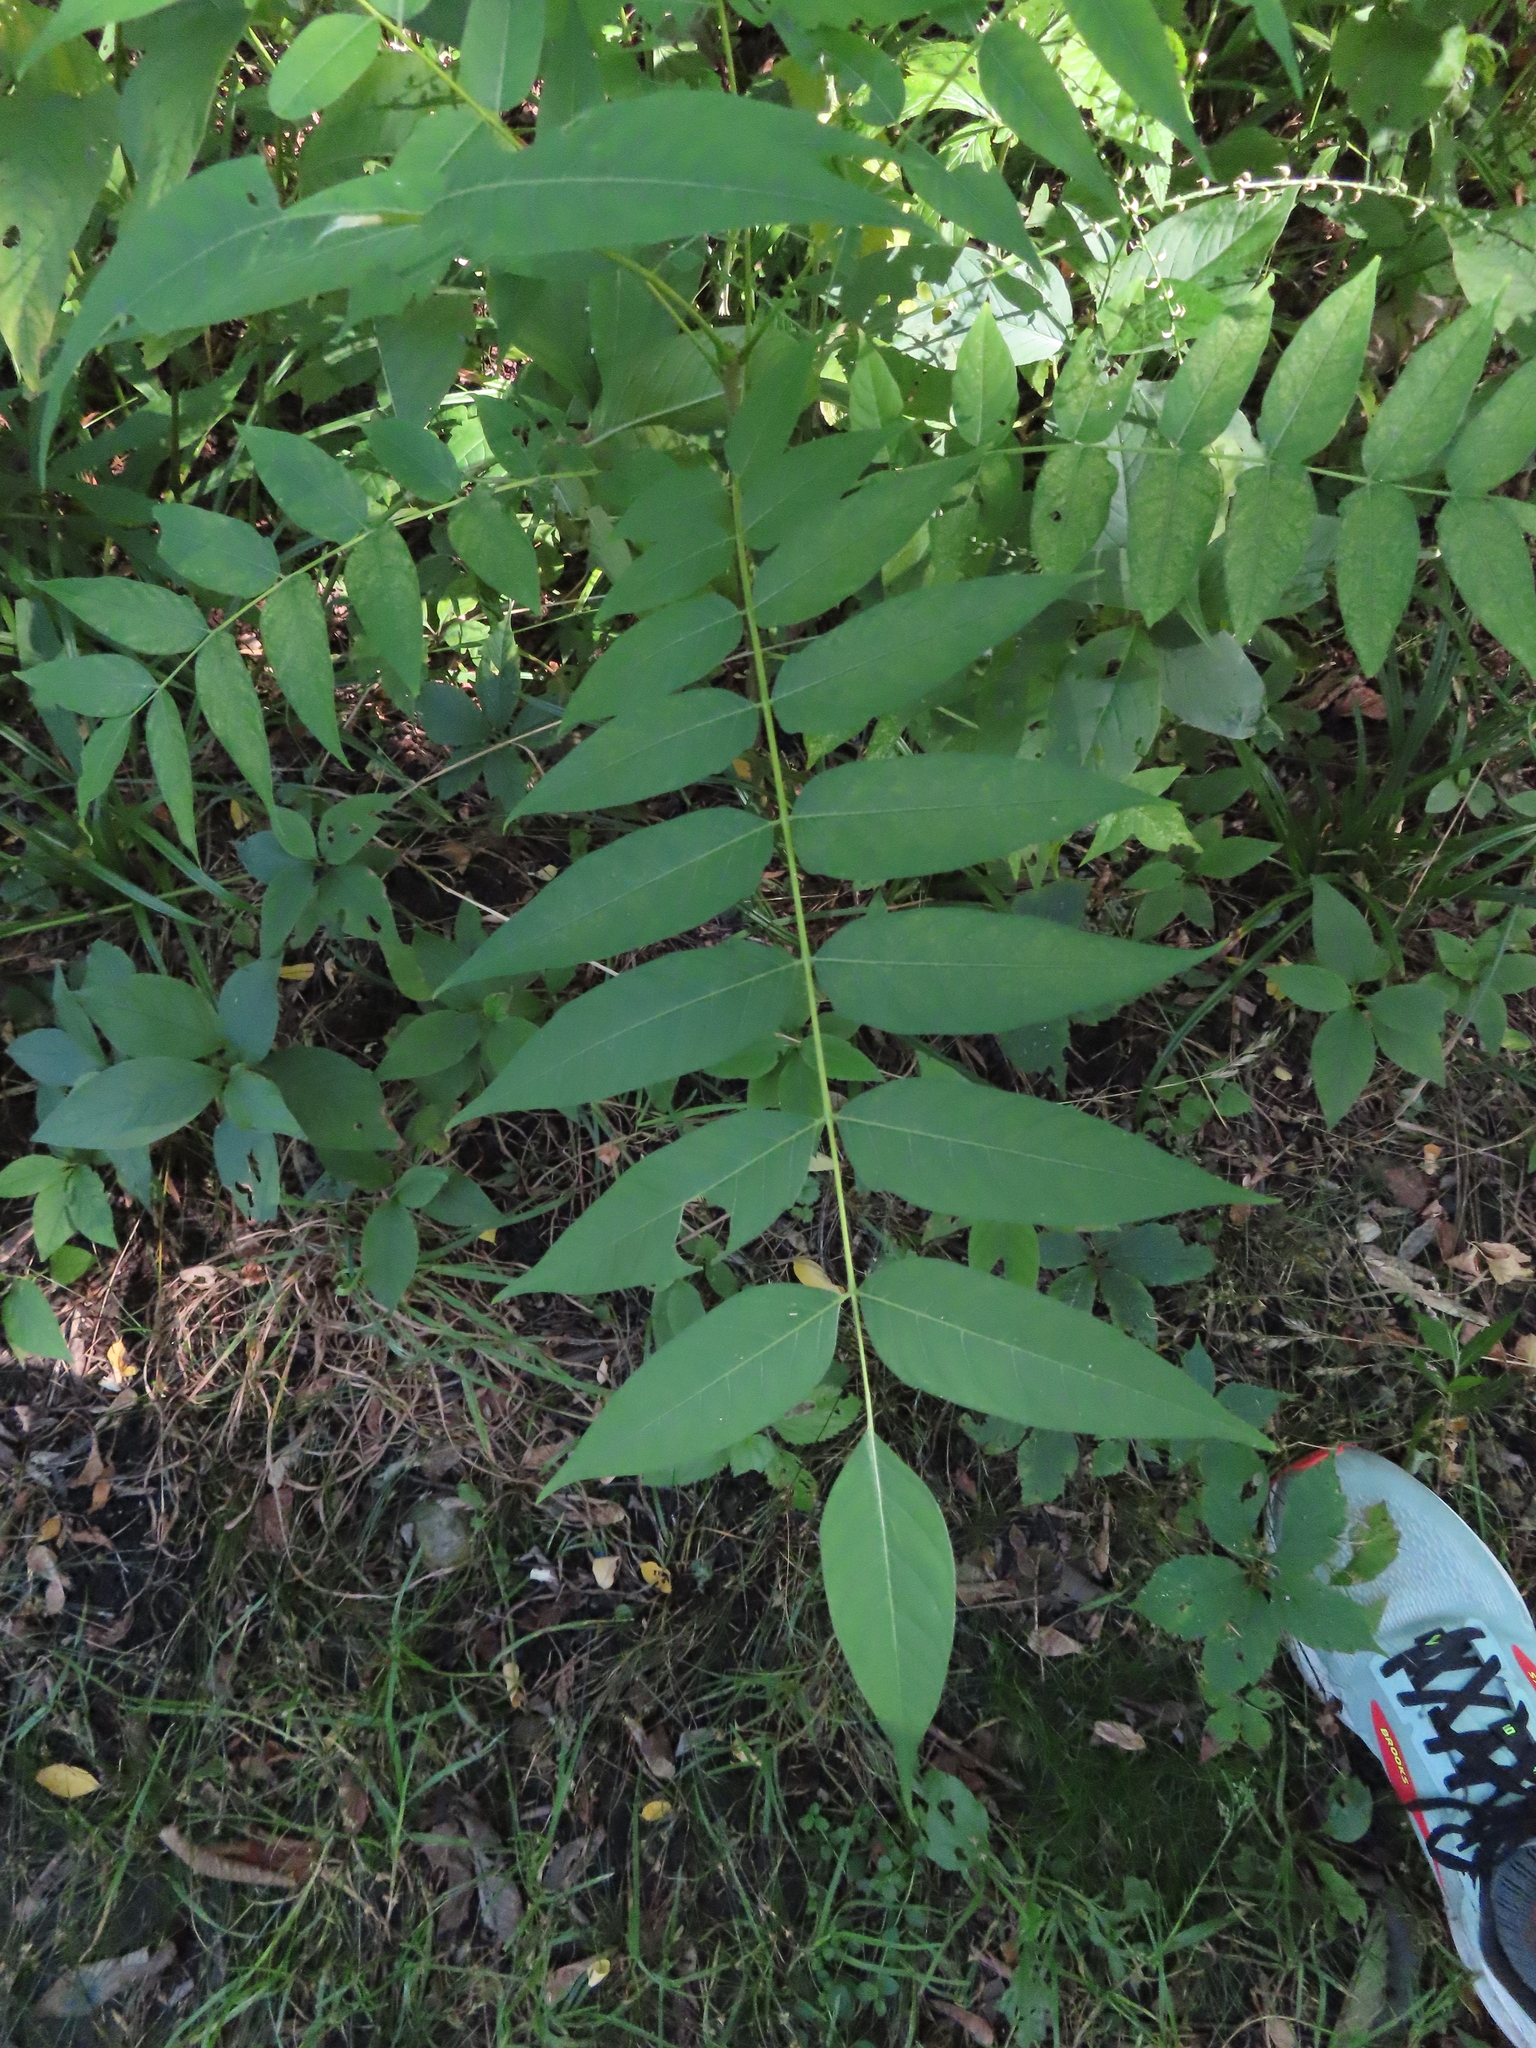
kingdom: Plantae
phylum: Tracheophyta
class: Magnoliopsida
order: Sapindales
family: Simaroubaceae
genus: Ailanthus
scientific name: Ailanthus altissima
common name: Tree-of-heaven
